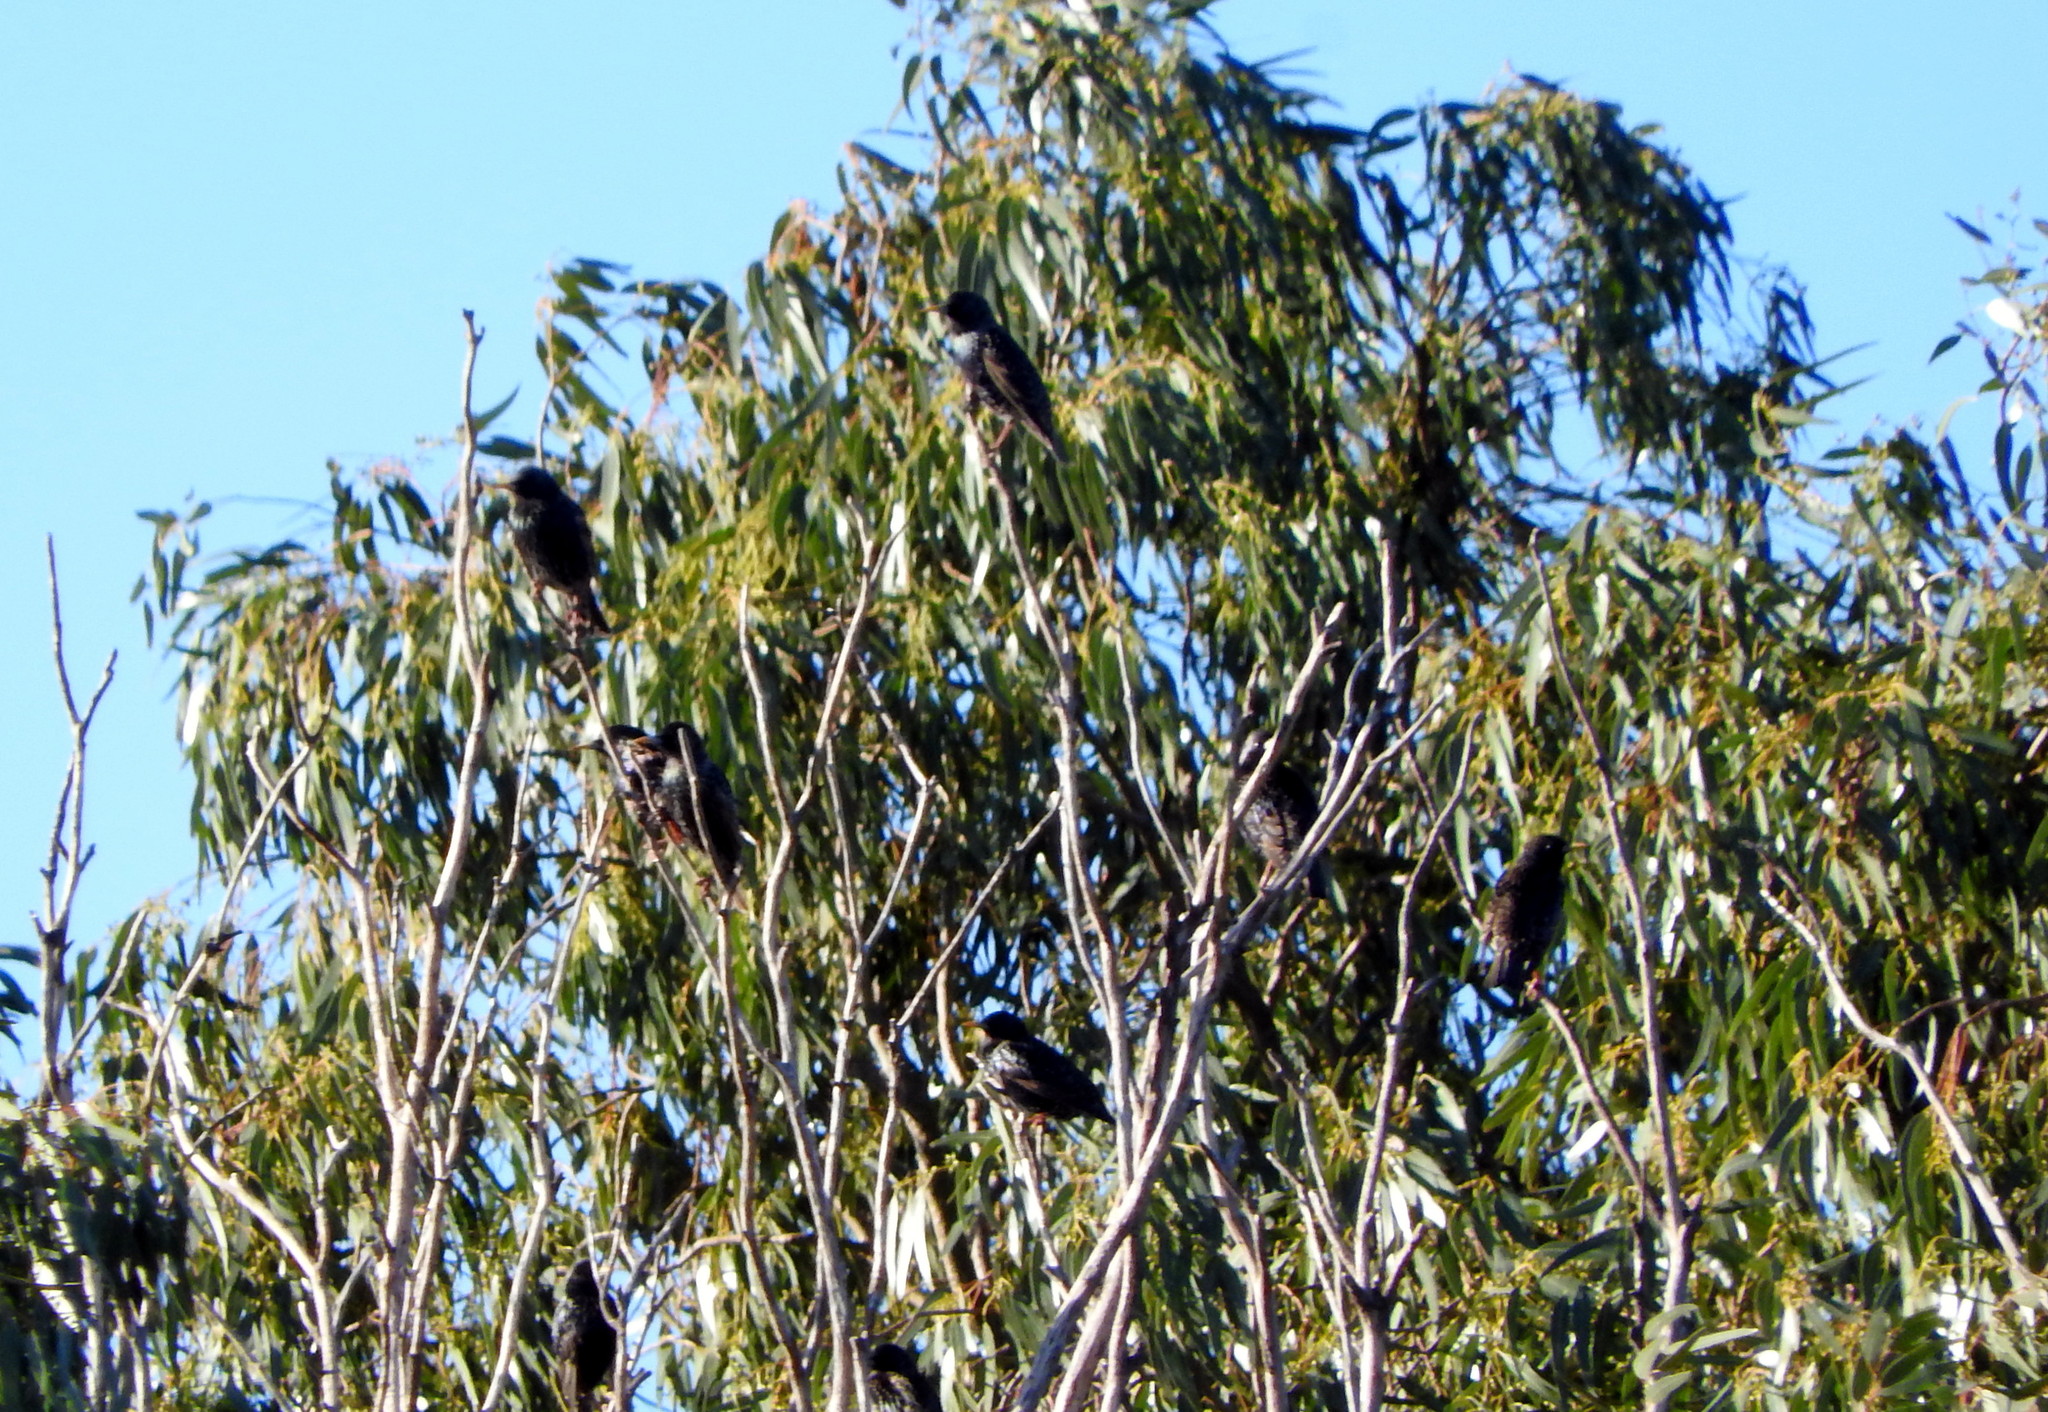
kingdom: Animalia
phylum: Chordata
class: Aves
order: Passeriformes
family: Sturnidae
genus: Sturnus
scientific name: Sturnus vulgaris
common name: Common starling
